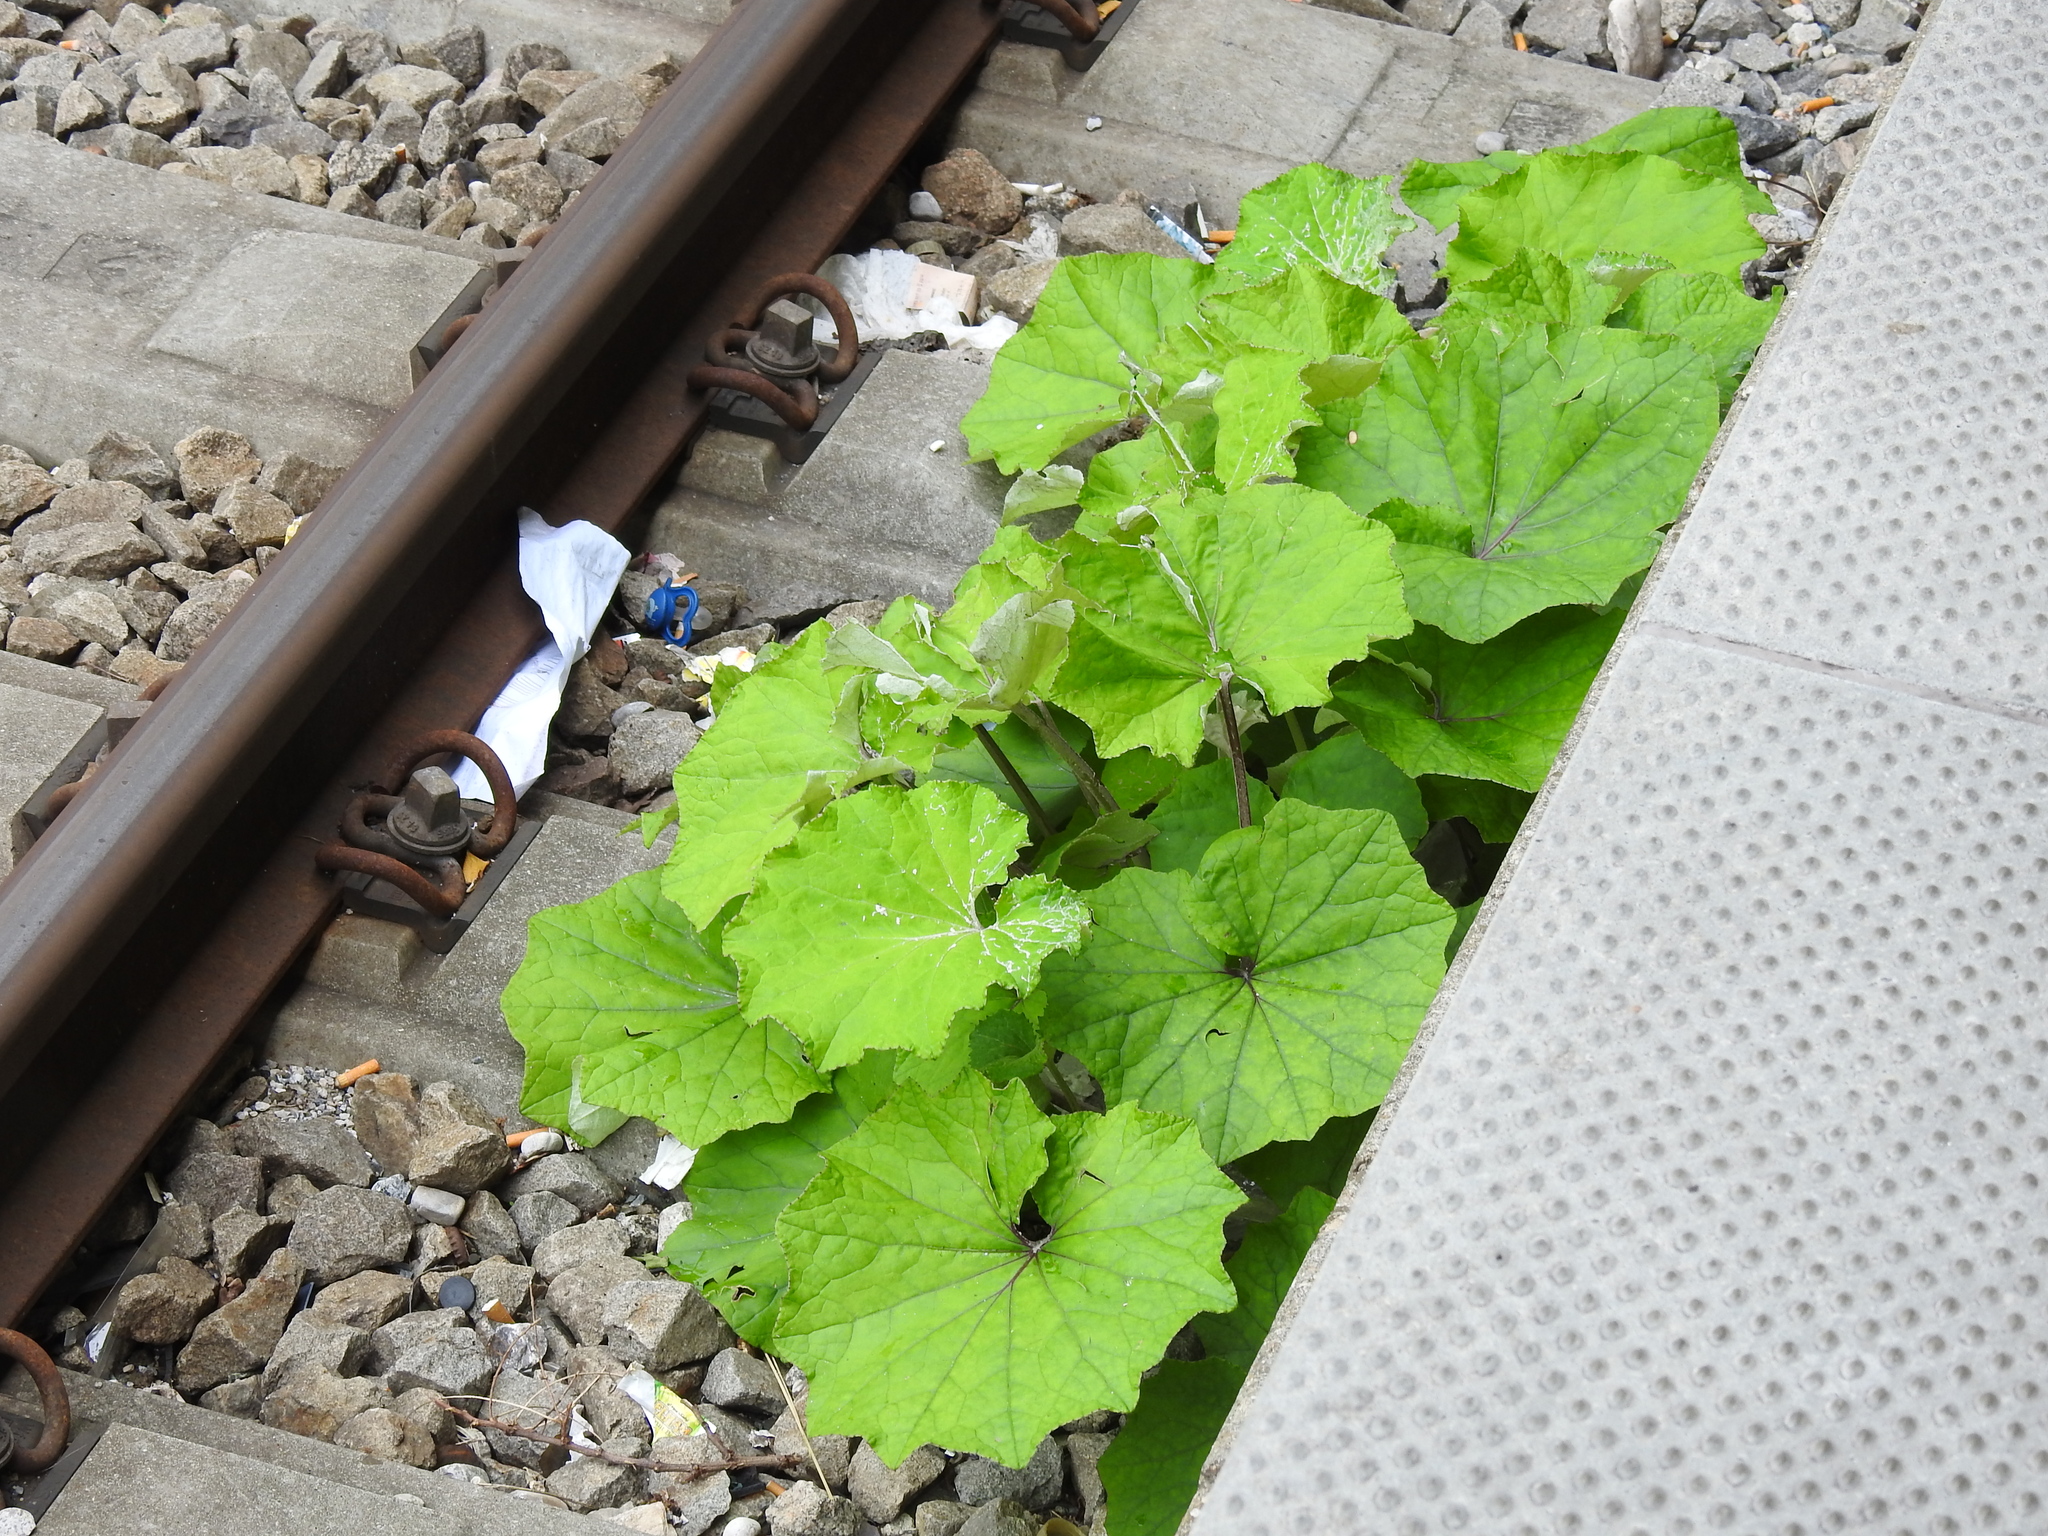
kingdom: Plantae
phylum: Tracheophyta
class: Magnoliopsida
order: Asterales
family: Asteraceae
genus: Tussilago
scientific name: Tussilago farfara
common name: Coltsfoot
